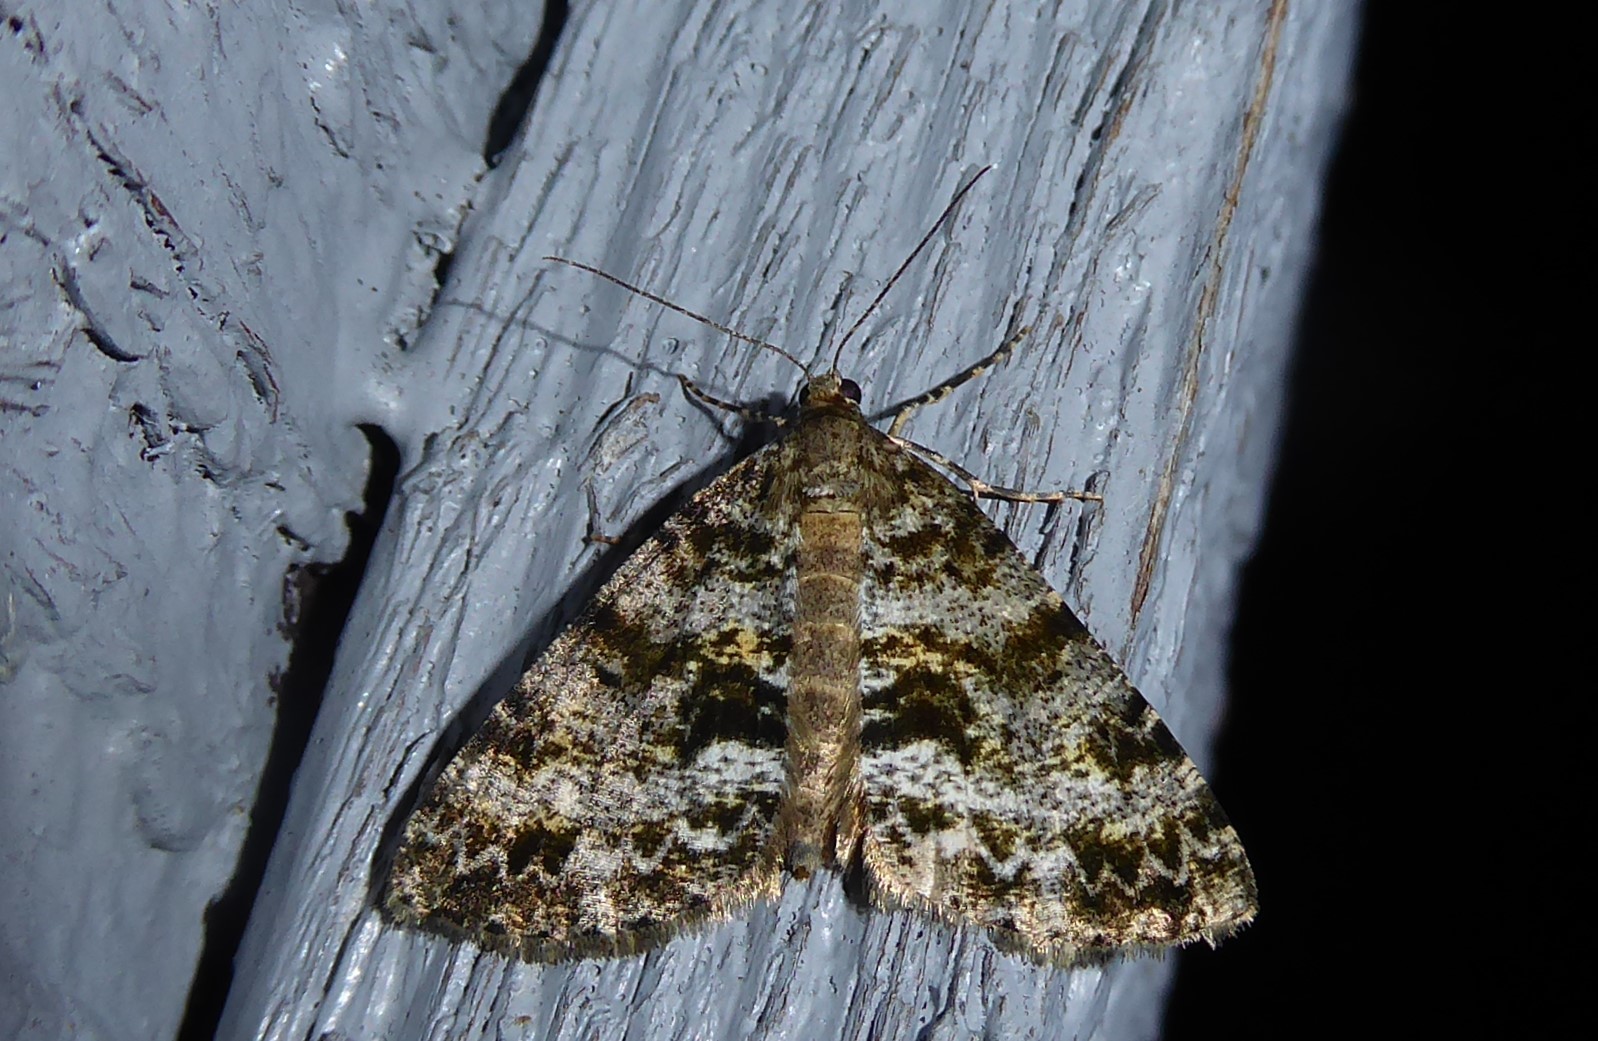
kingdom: Animalia
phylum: Arthropoda
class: Insecta
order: Lepidoptera
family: Geometridae
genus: Pseudocoremia
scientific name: Pseudocoremia lactiflua
